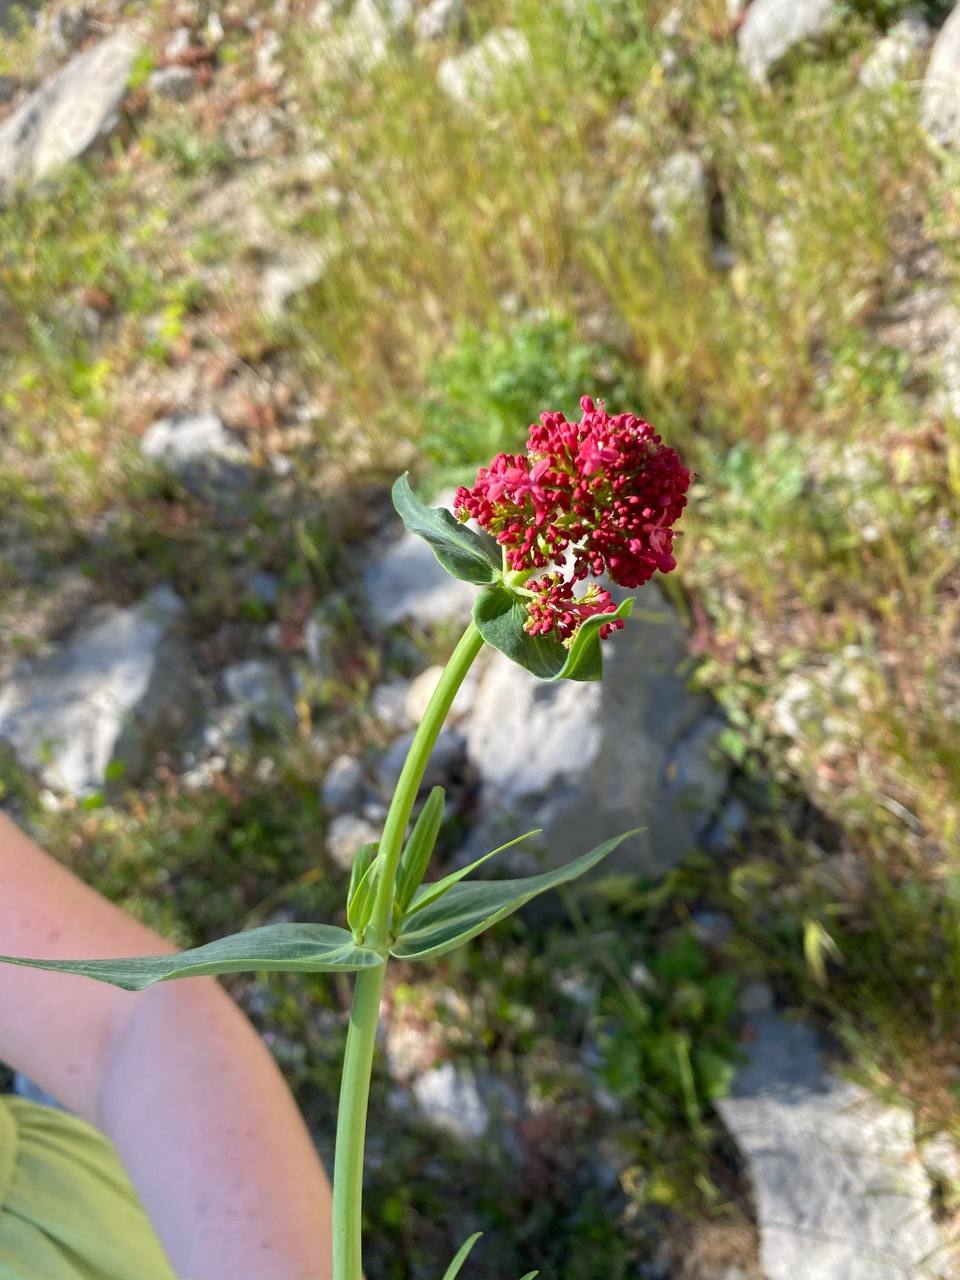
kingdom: Plantae
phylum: Tracheophyta
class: Magnoliopsida
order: Dipsacales
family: Caprifoliaceae
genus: Centranthus
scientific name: Centranthus ruber
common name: Red valerian
